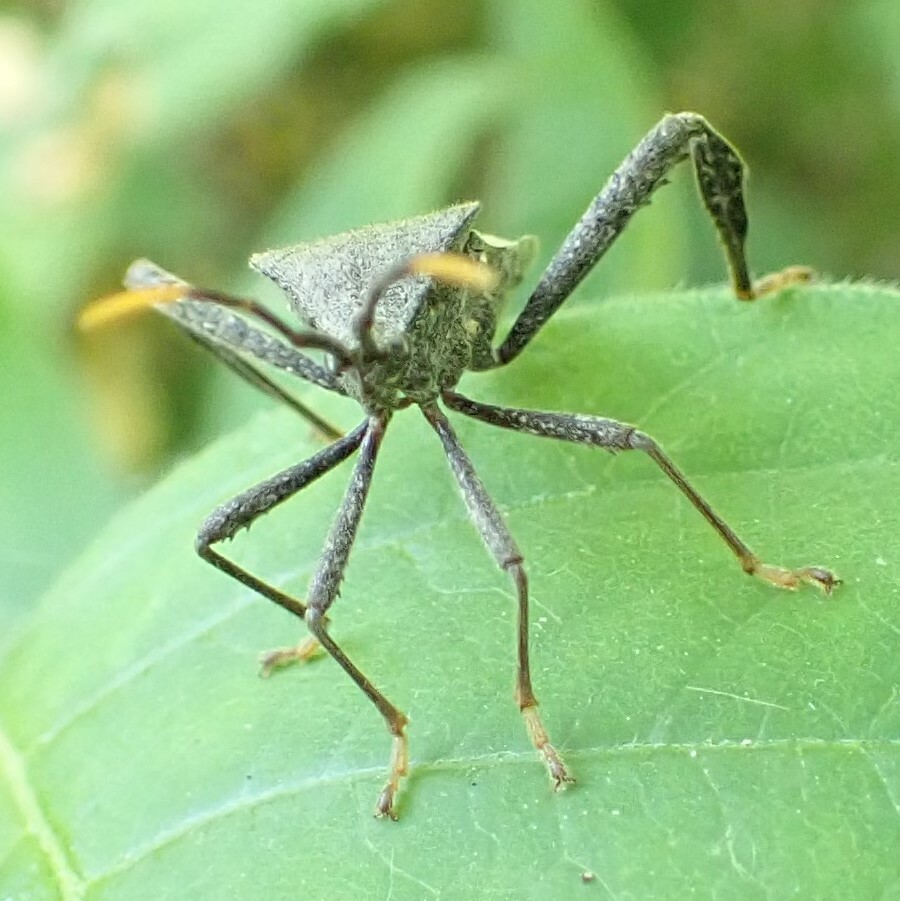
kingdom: Animalia
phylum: Arthropoda
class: Insecta
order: Hemiptera
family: Coreidae
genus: Acanthocephala
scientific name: Acanthocephala terminalis
